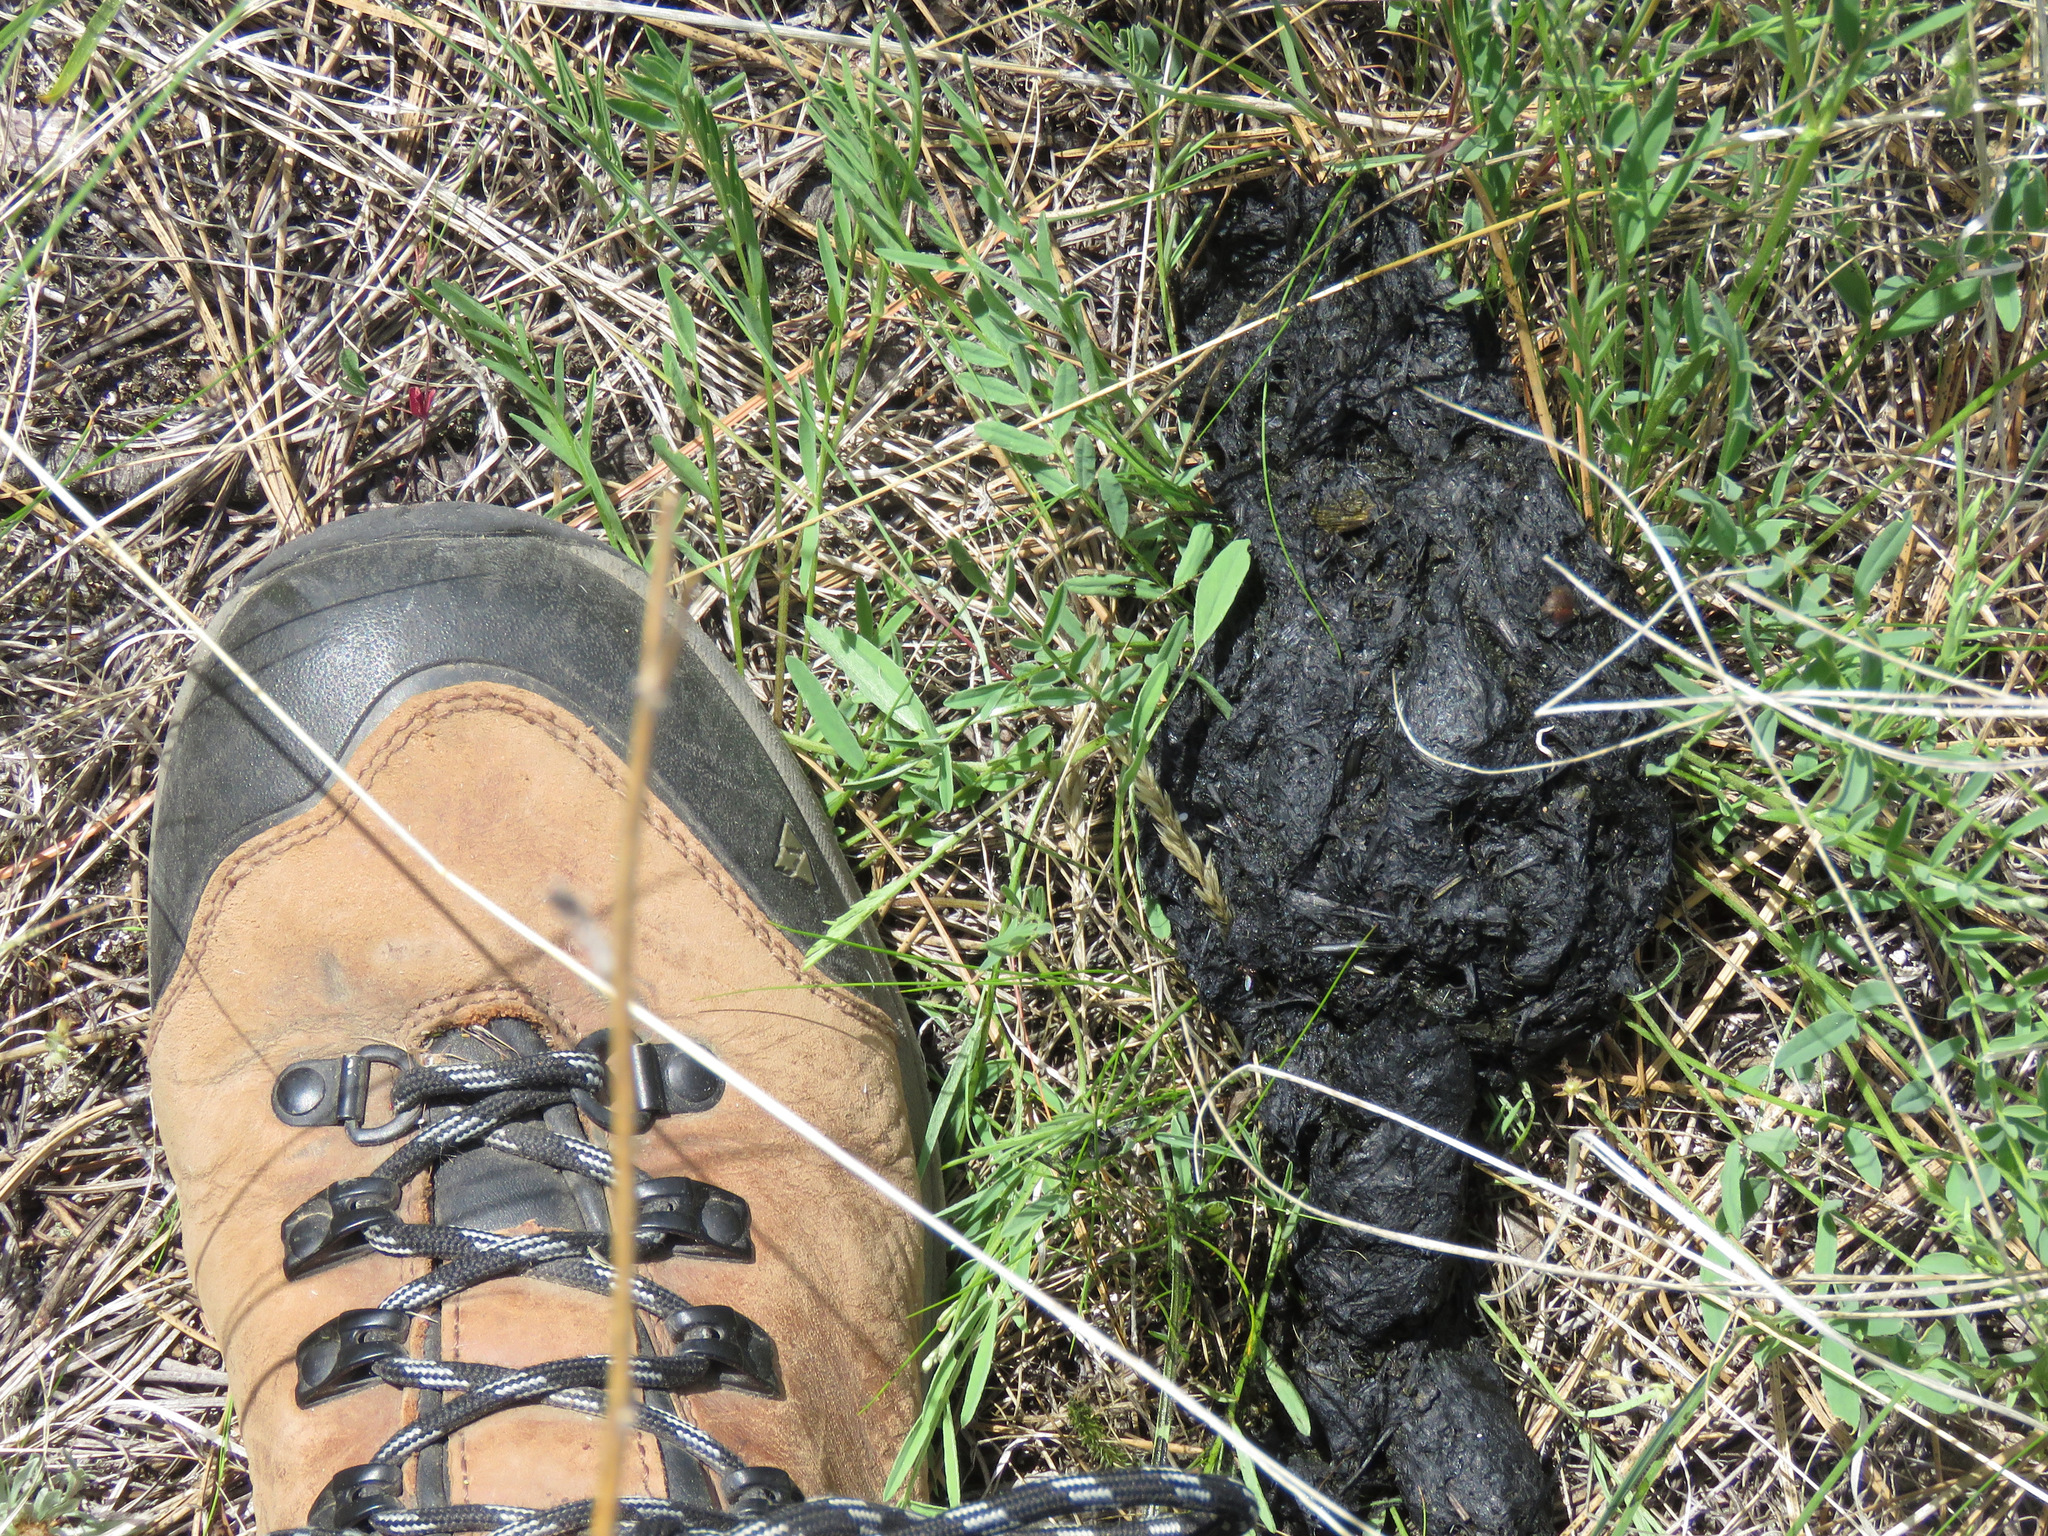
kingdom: Animalia
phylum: Chordata
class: Mammalia
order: Carnivora
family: Ursidae
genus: Ursus
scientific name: Ursus americanus
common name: American black bear
